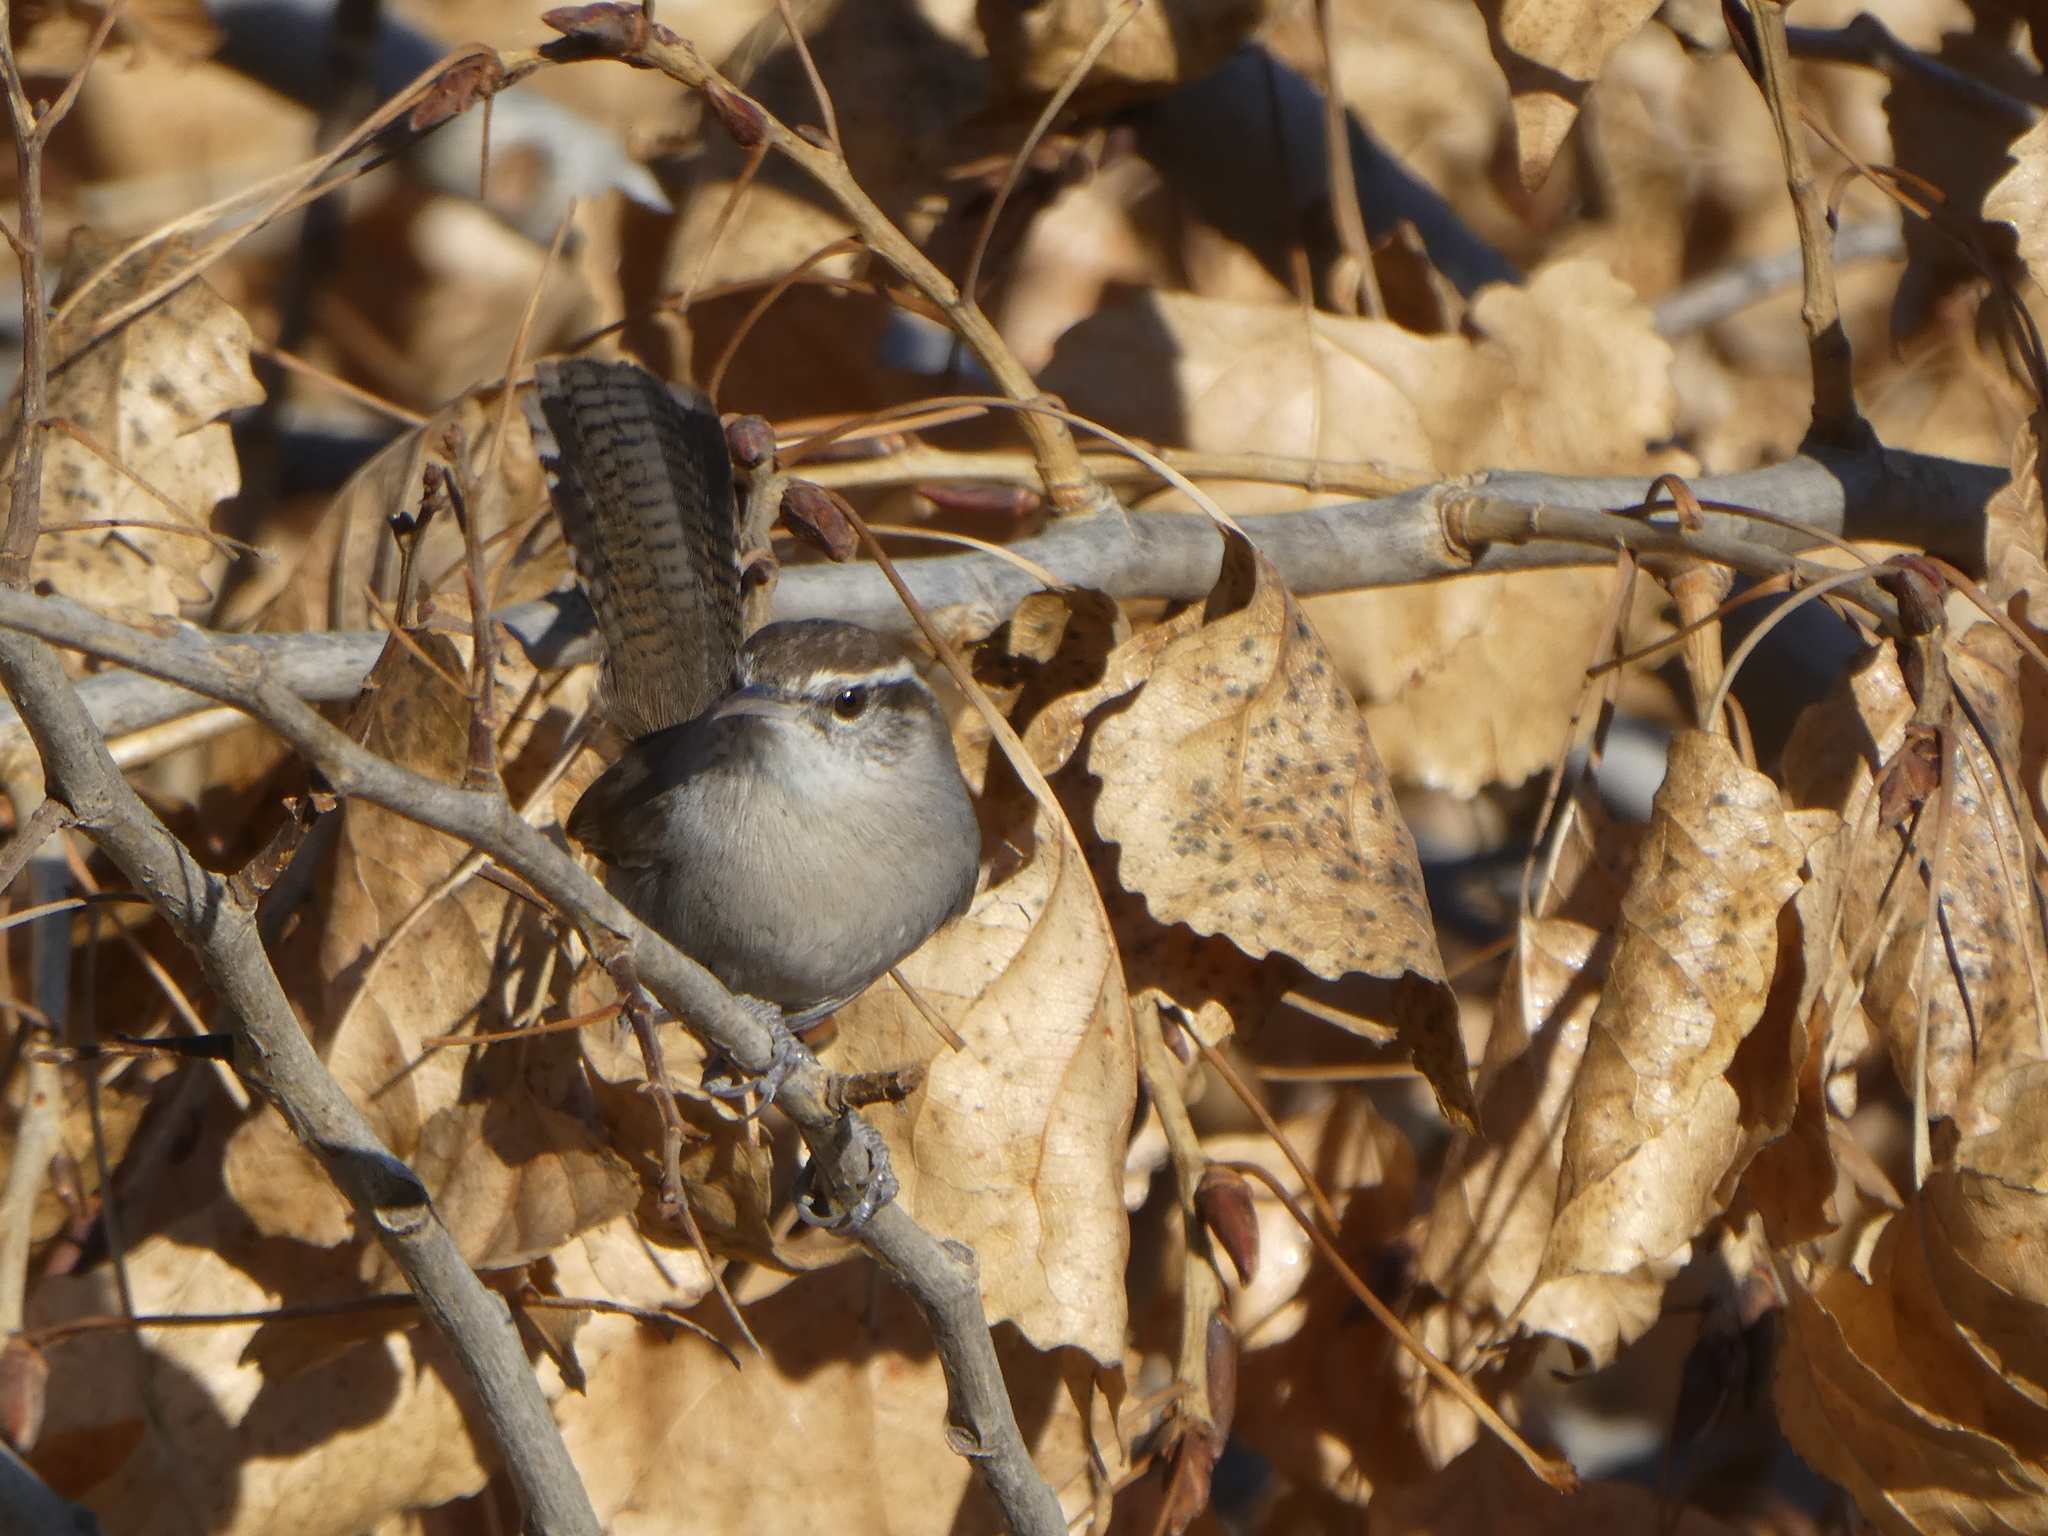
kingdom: Animalia
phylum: Chordata
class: Aves
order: Passeriformes
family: Troglodytidae
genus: Thryomanes
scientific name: Thryomanes bewickii
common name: Bewick's wren
